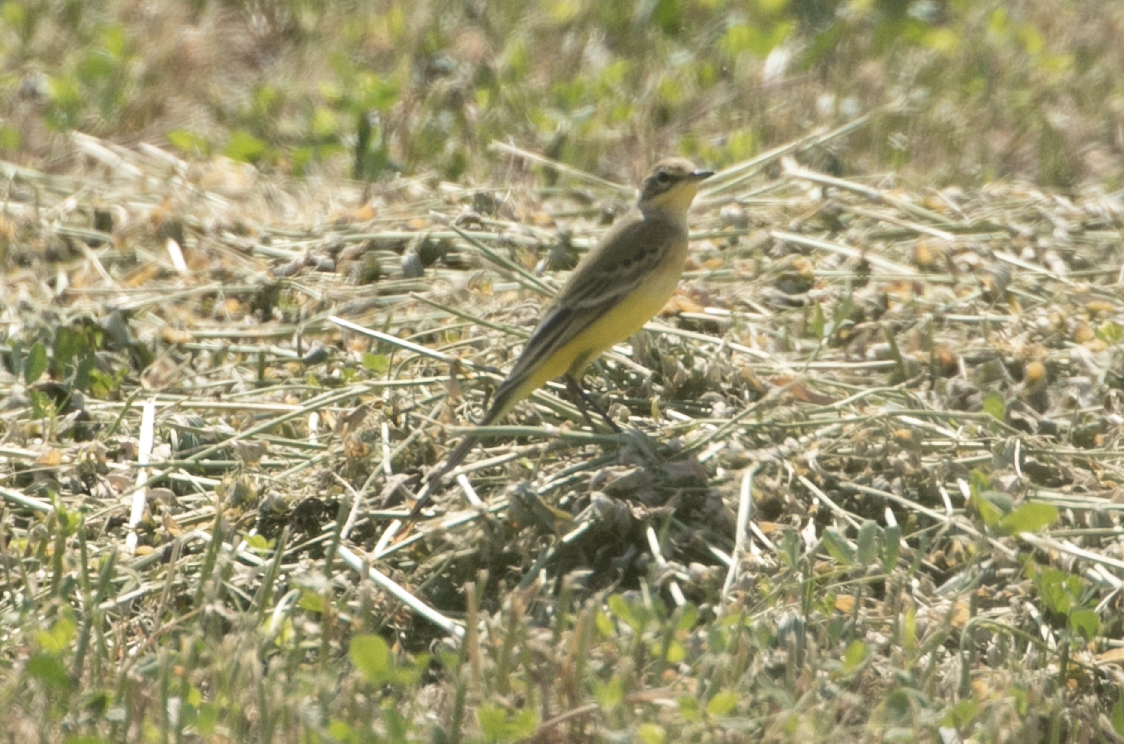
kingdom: Animalia
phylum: Chordata
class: Aves
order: Passeriformes
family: Motacillidae
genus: Motacilla
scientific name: Motacilla flava
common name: Western yellow wagtail
